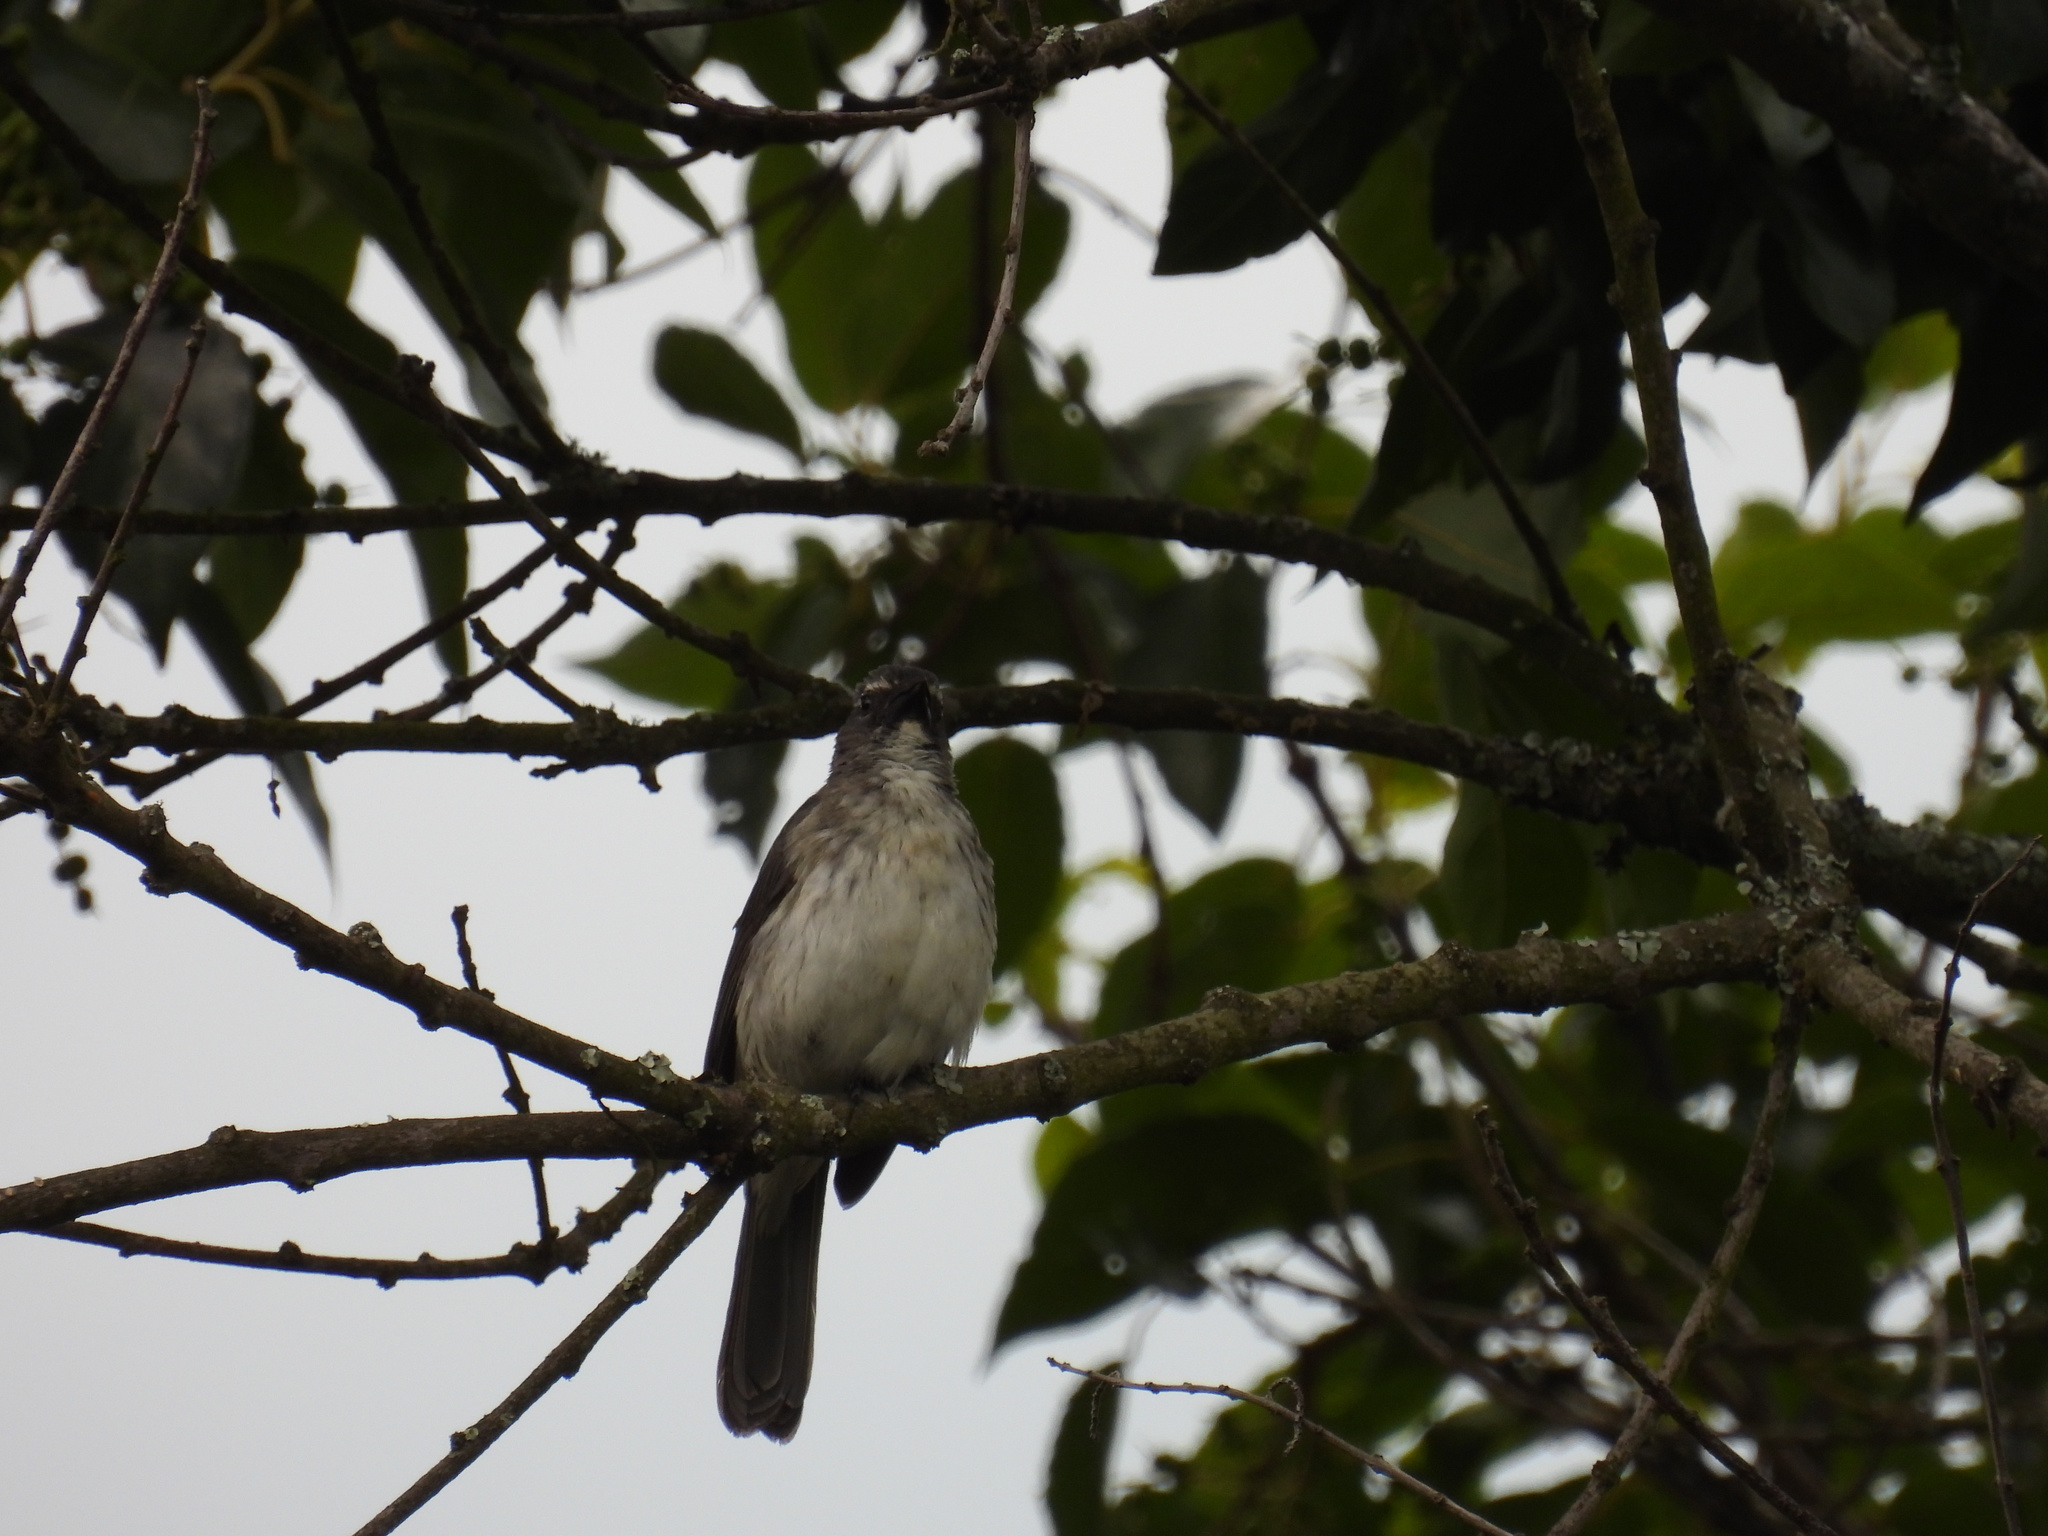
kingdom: Animalia
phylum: Chordata
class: Aves
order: Passeriformes
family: Thraupidae
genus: Saltator
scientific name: Saltator striatipectus
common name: Streaked saltator
